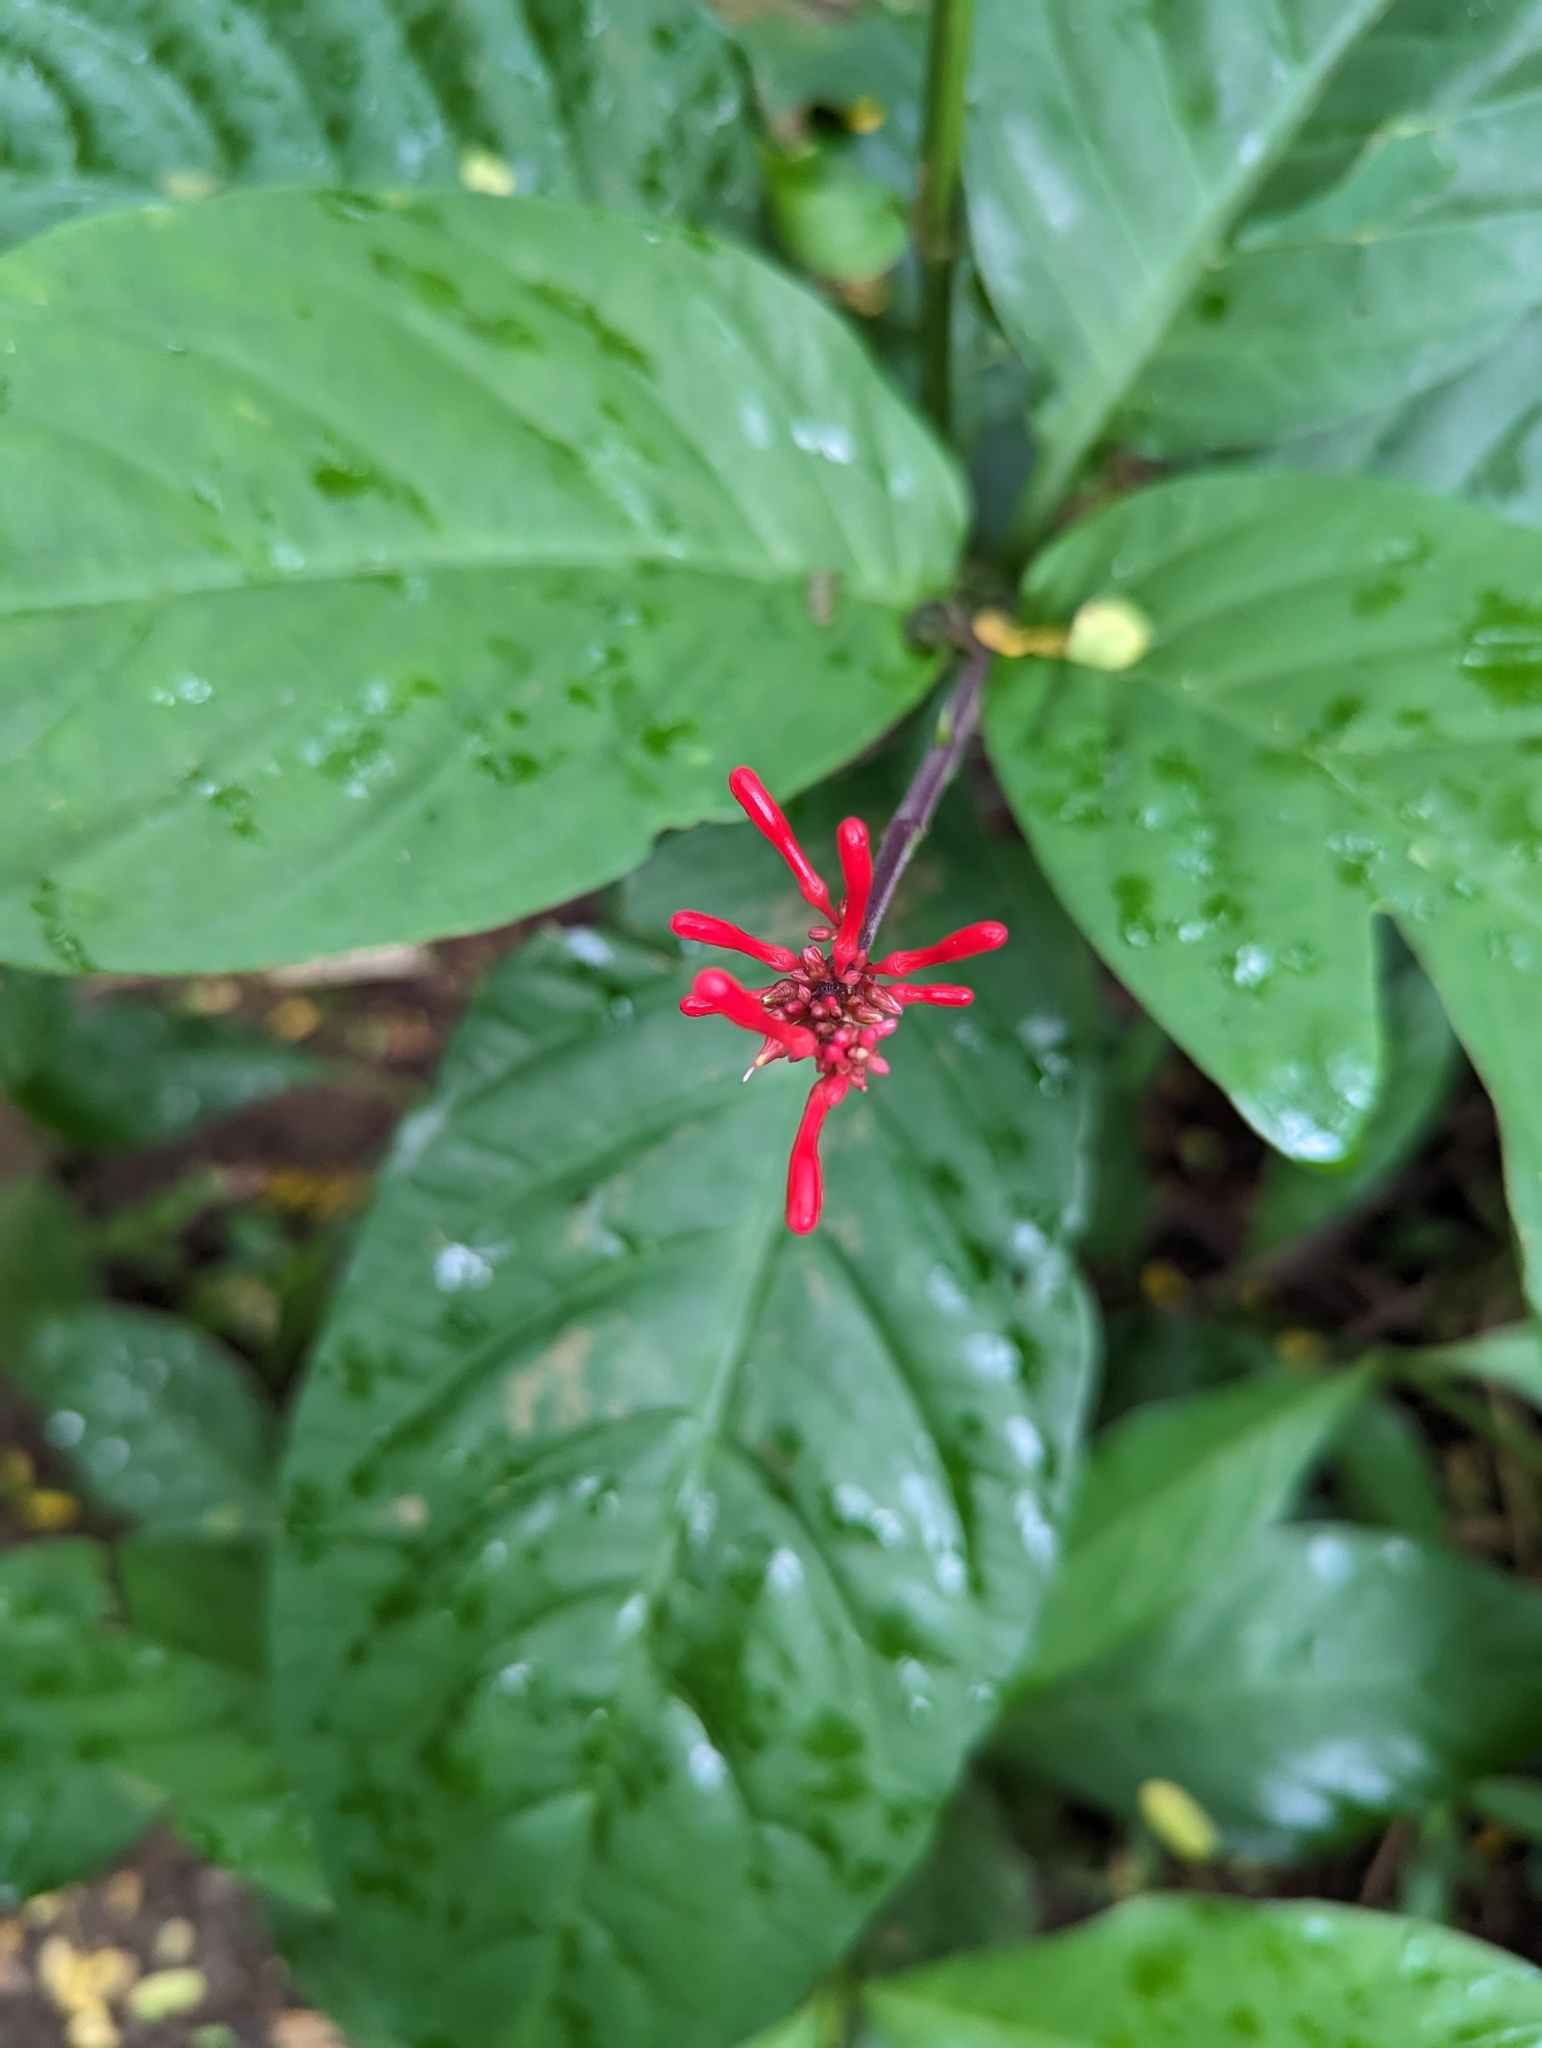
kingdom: Plantae
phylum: Tracheophyta
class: Magnoliopsida
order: Lamiales
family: Acanthaceae
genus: Odontonema
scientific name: Odontonema cuspidatum
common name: Mottled toothedthread
